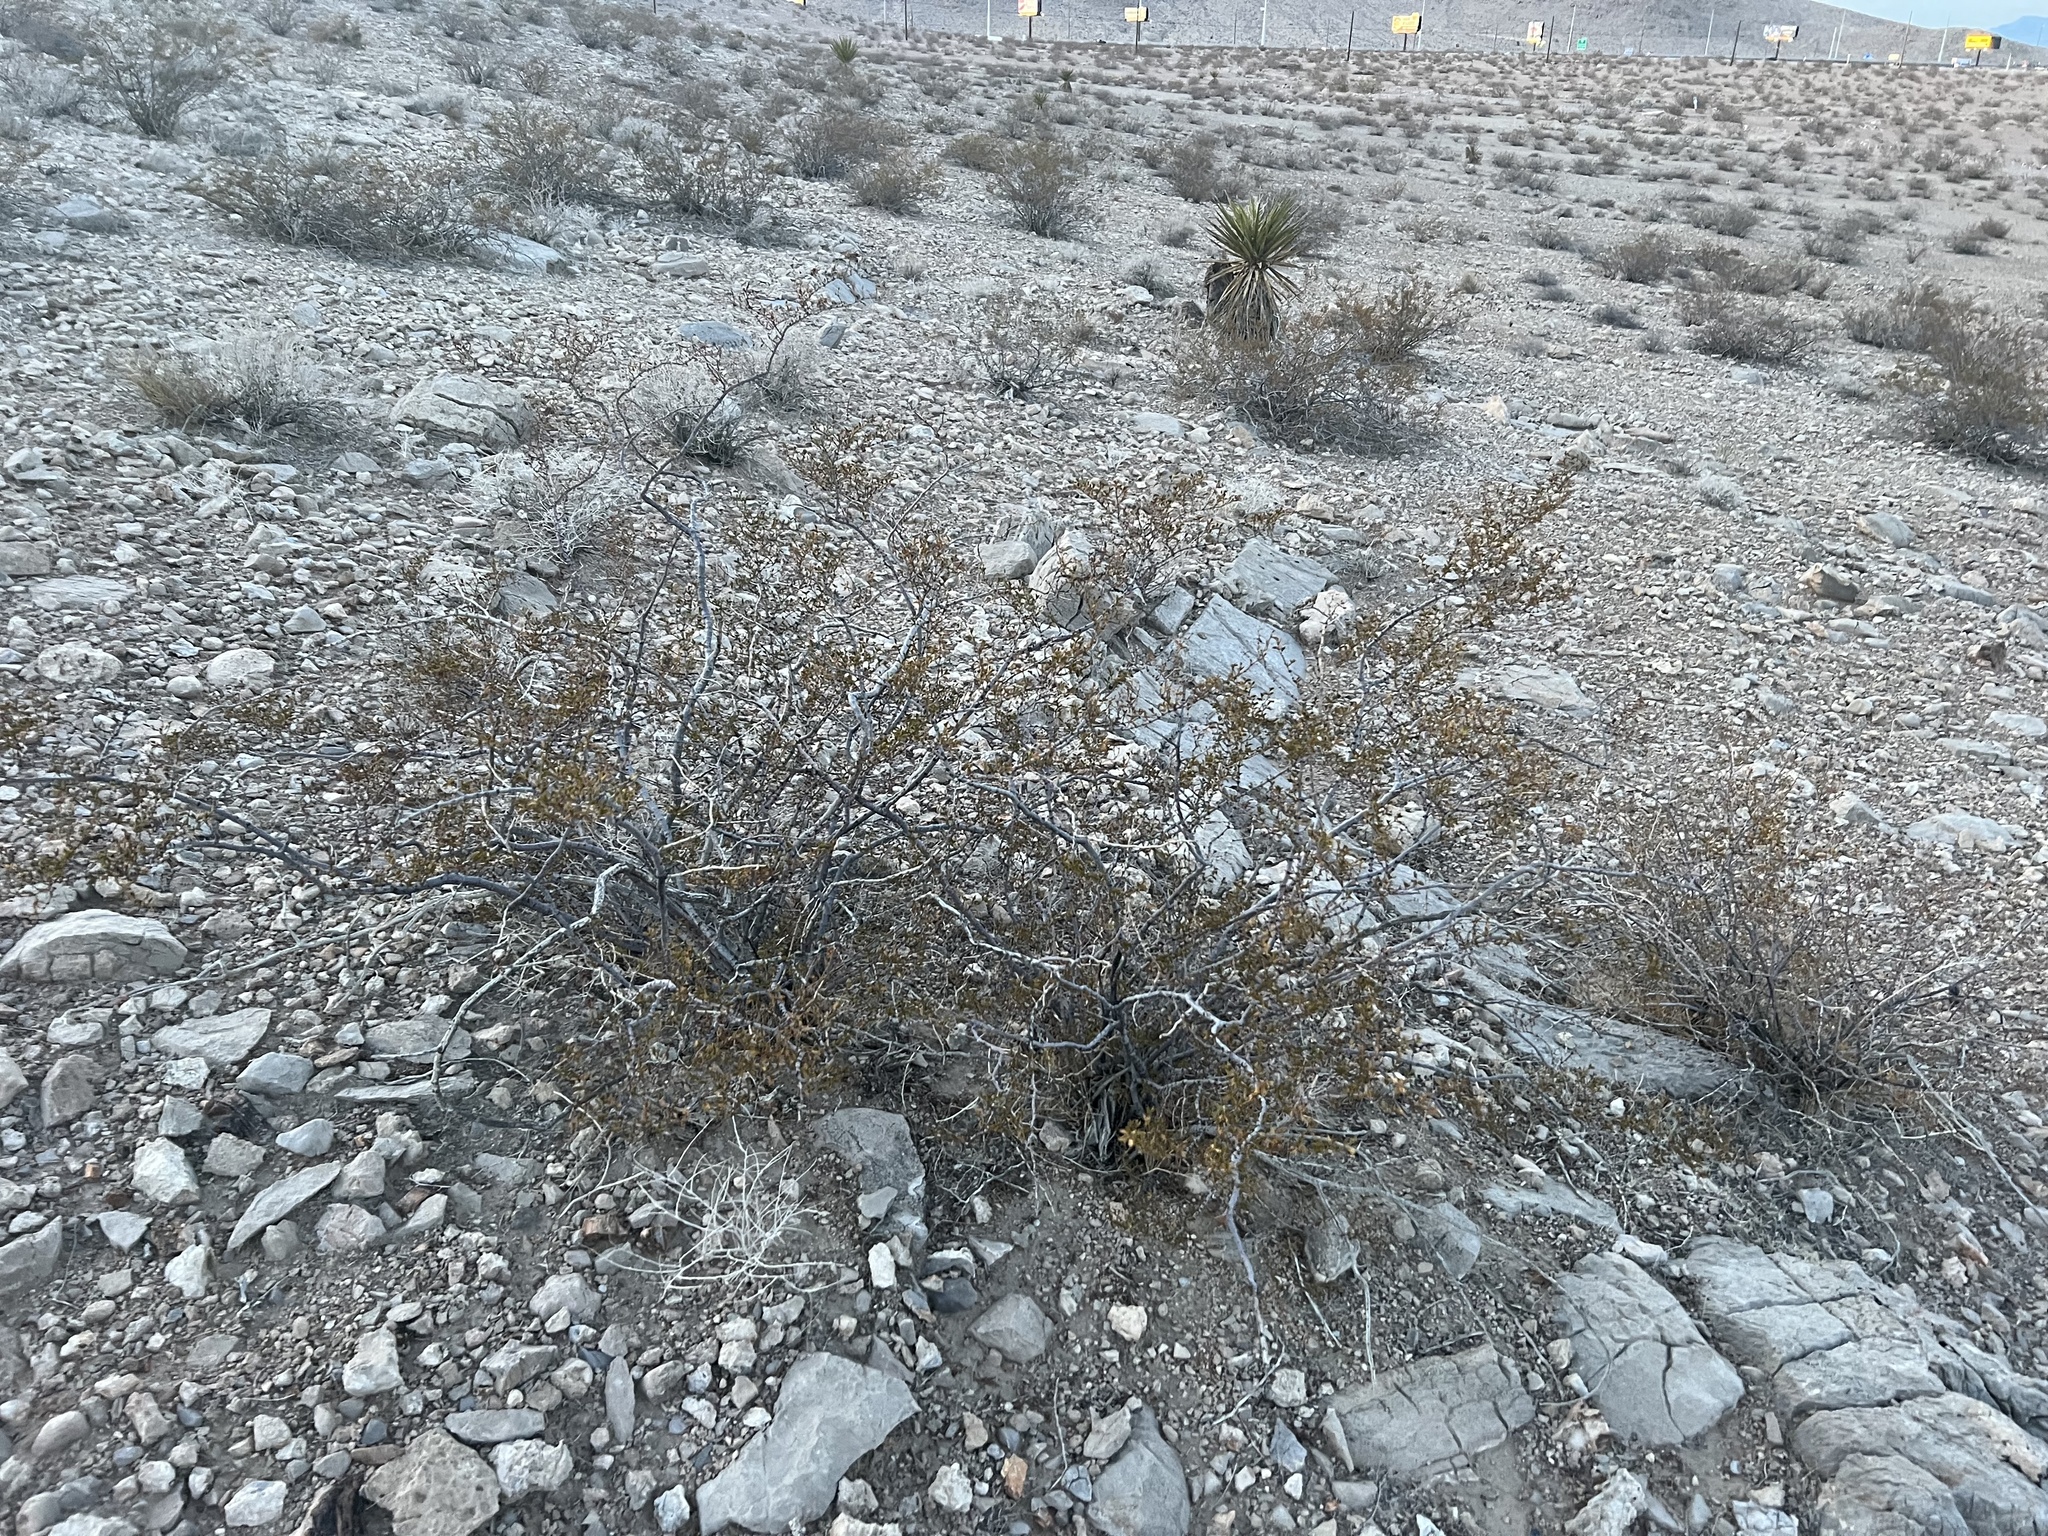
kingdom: Plantae
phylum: Tracheophyta
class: Magnoliopsida
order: Zygophyllales
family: Zygophyllaceae
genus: Larrea
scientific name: Larrea tridentata
